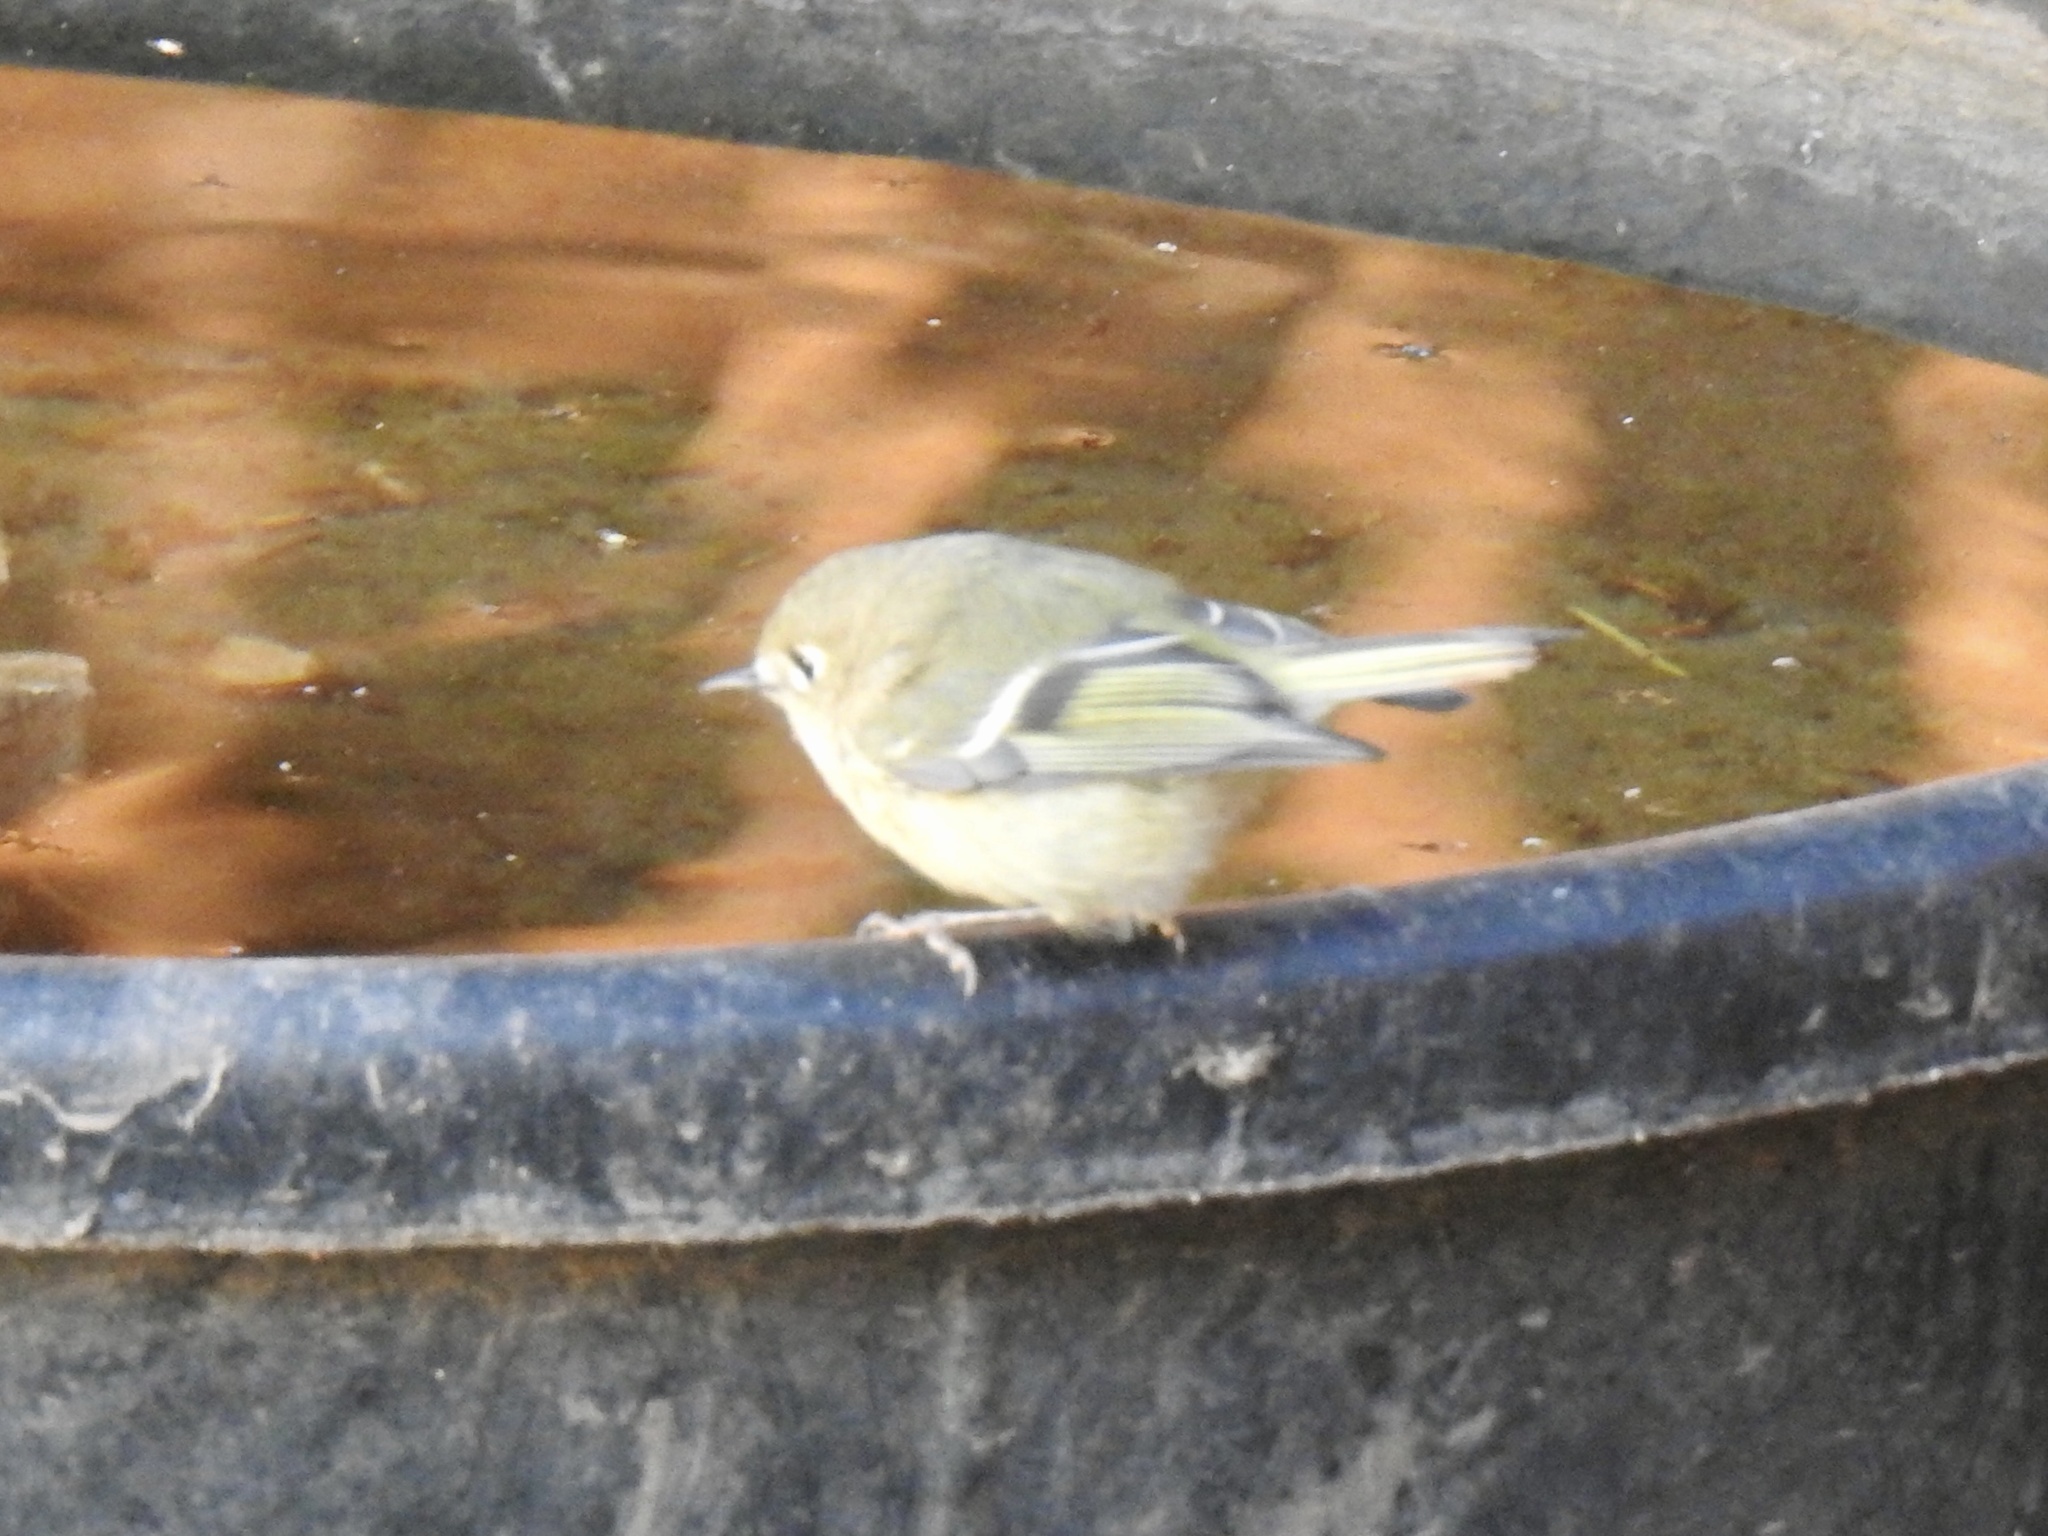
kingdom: Animalia
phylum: Chordata
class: Aves
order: Passeriformes
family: Regulidae
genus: Regulus
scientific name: Regulus calendula
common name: Ruby-crowned kinglet
